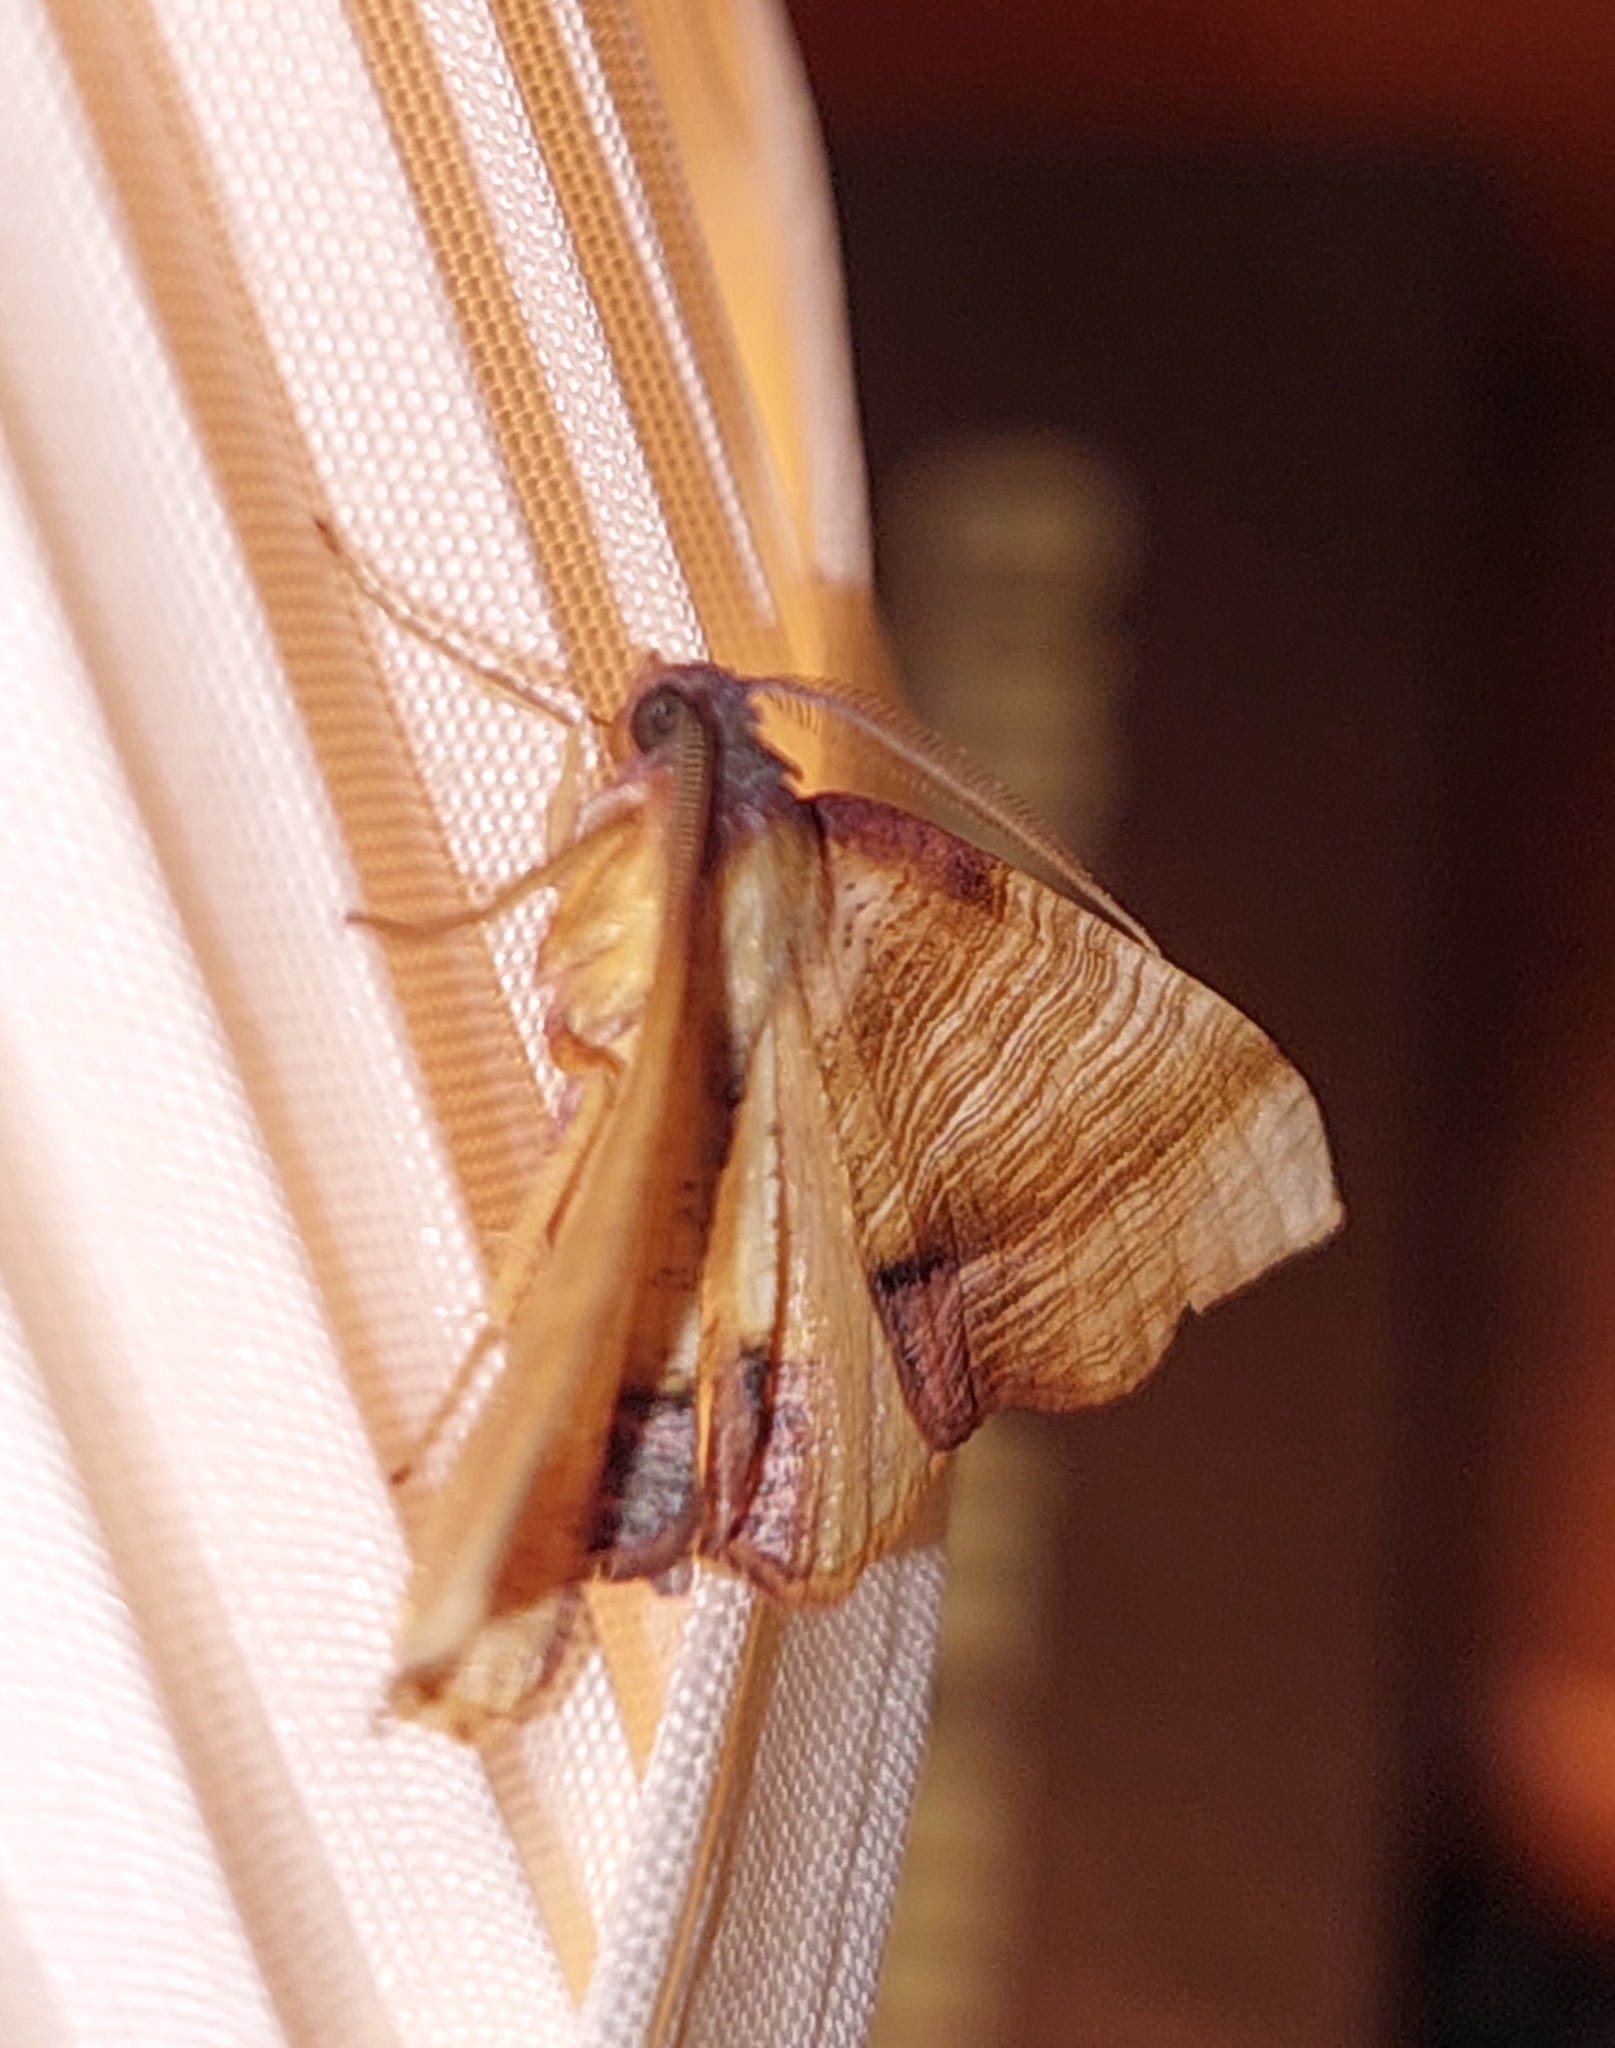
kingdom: Animalia
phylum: Arthropoda
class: Insecta
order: Lepidoptera
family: Geometridae
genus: Plagodis
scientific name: Plagodis dolabraria
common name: Scorched wing
